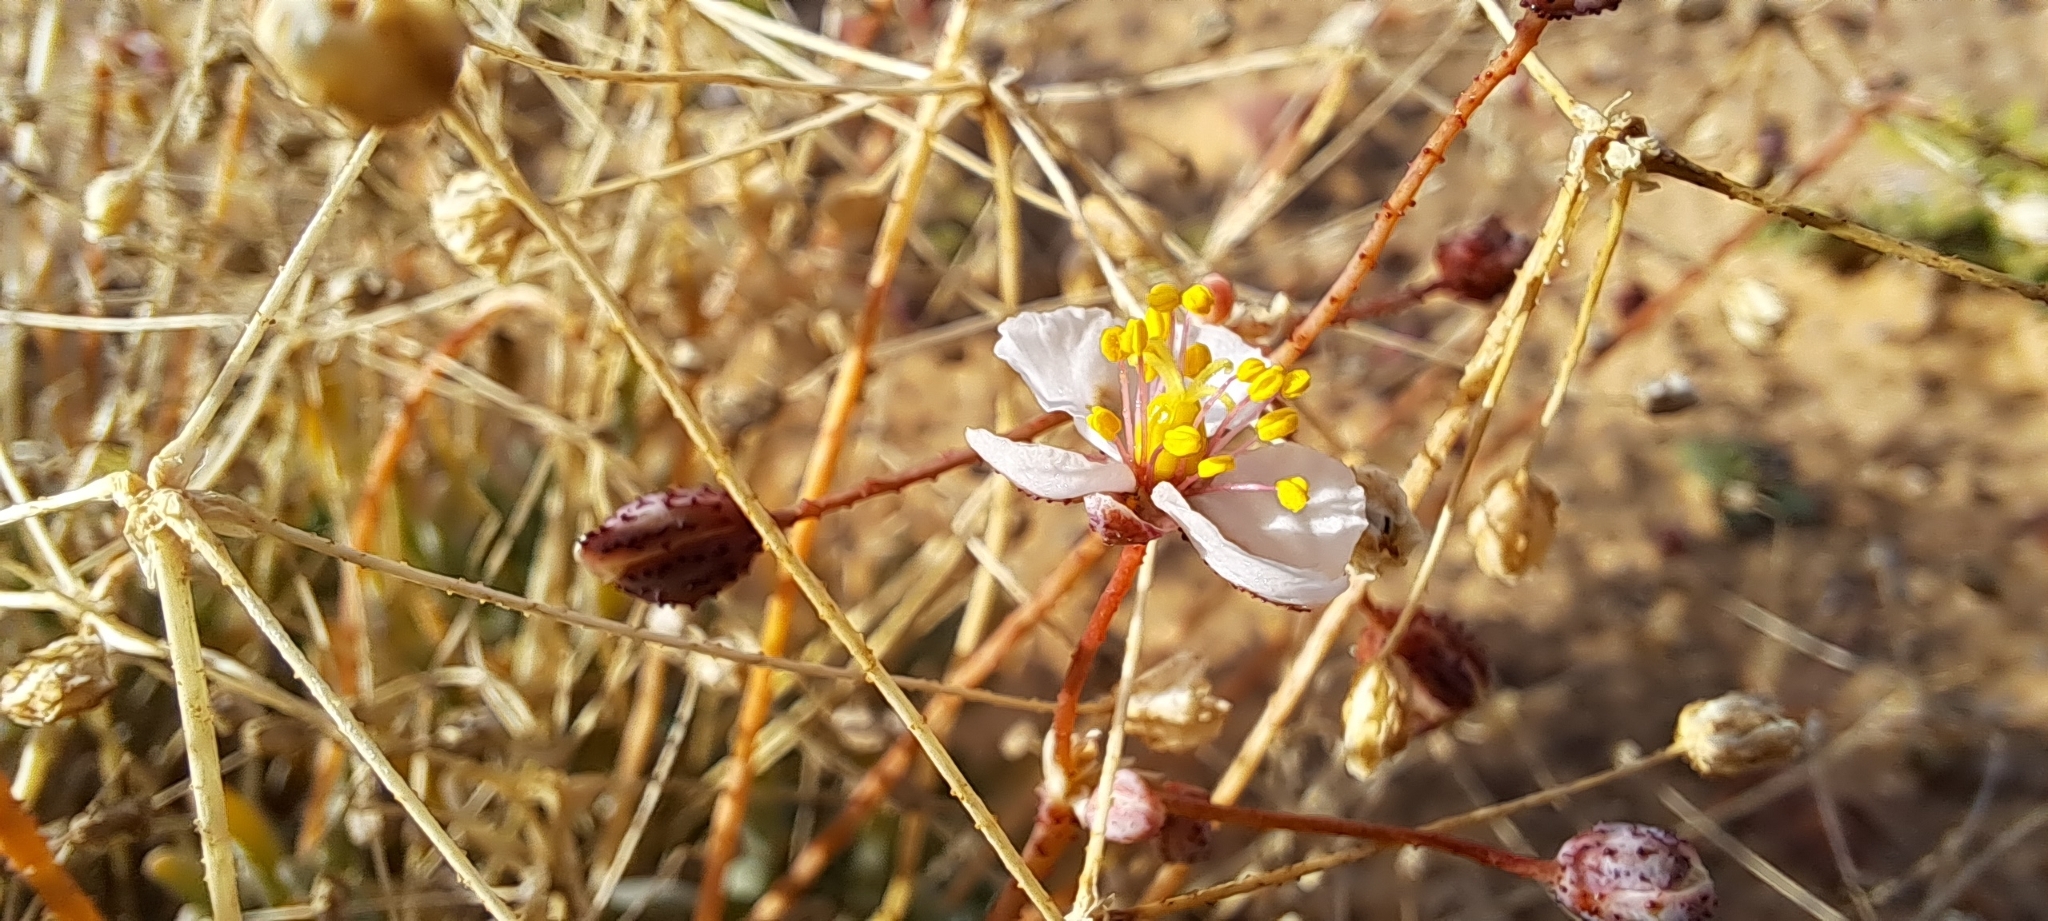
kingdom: Plantae
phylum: Tracheophyta
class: Magnoliopsida
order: Caryophyllales
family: Kewaceae
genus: Kewa
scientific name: Kewa salsoloides
